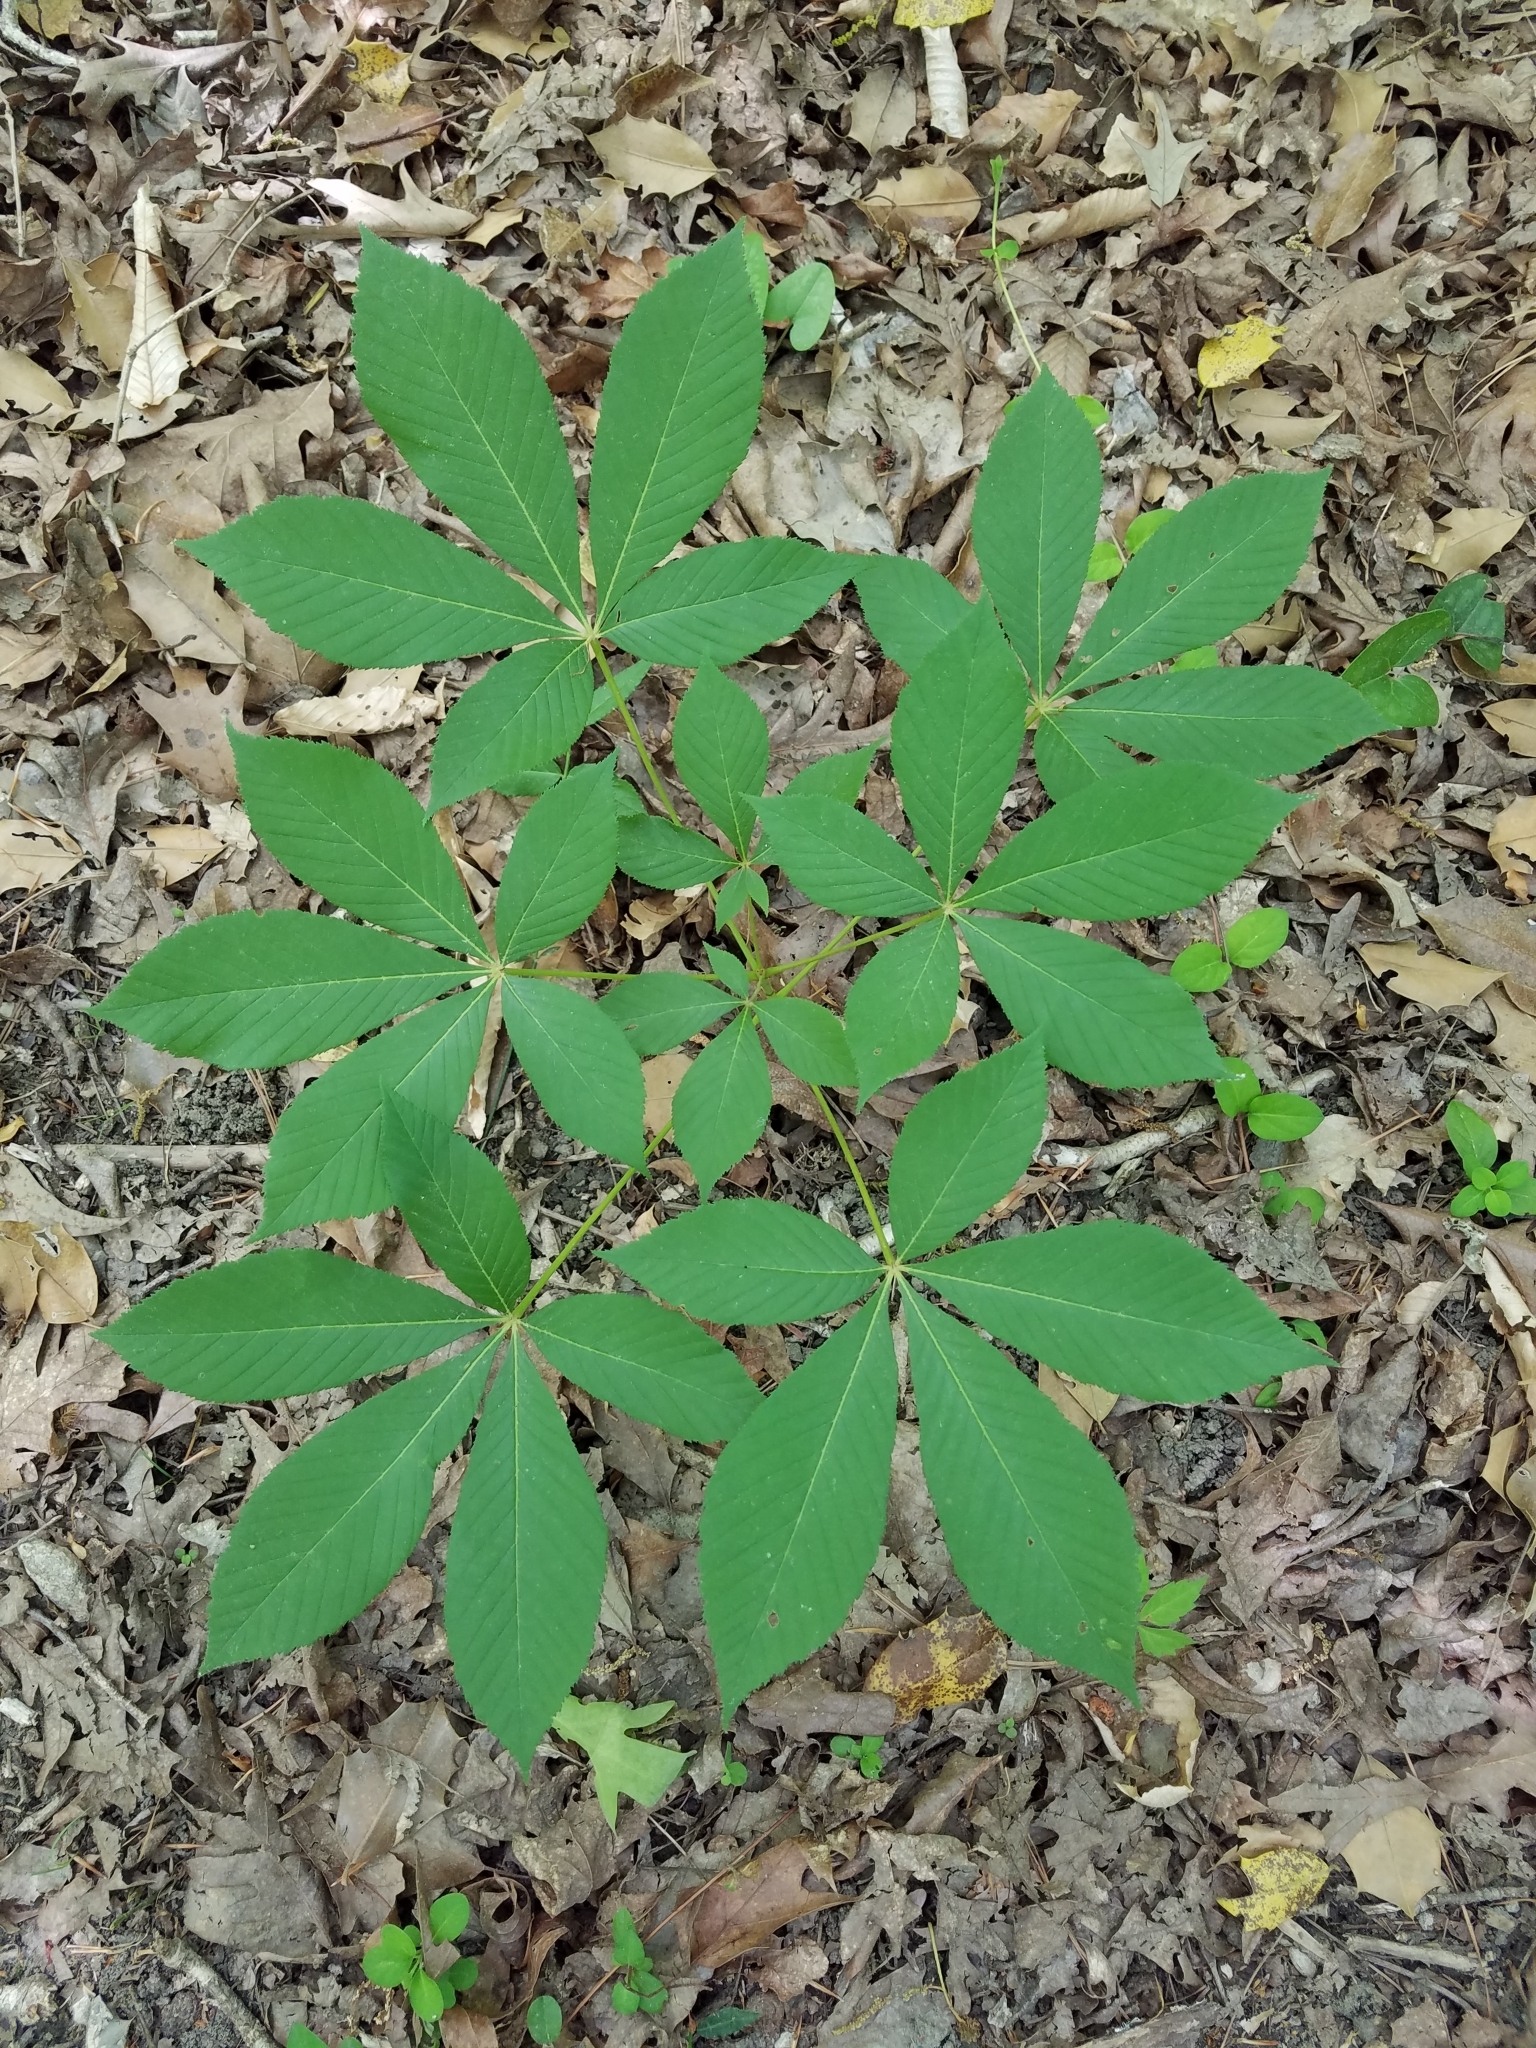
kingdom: Plantae
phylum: Tracheophyta
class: Magnoliopsida
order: Sapindales
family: Sapindaceae
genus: Aesculus
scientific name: Aesculus sylvatica
